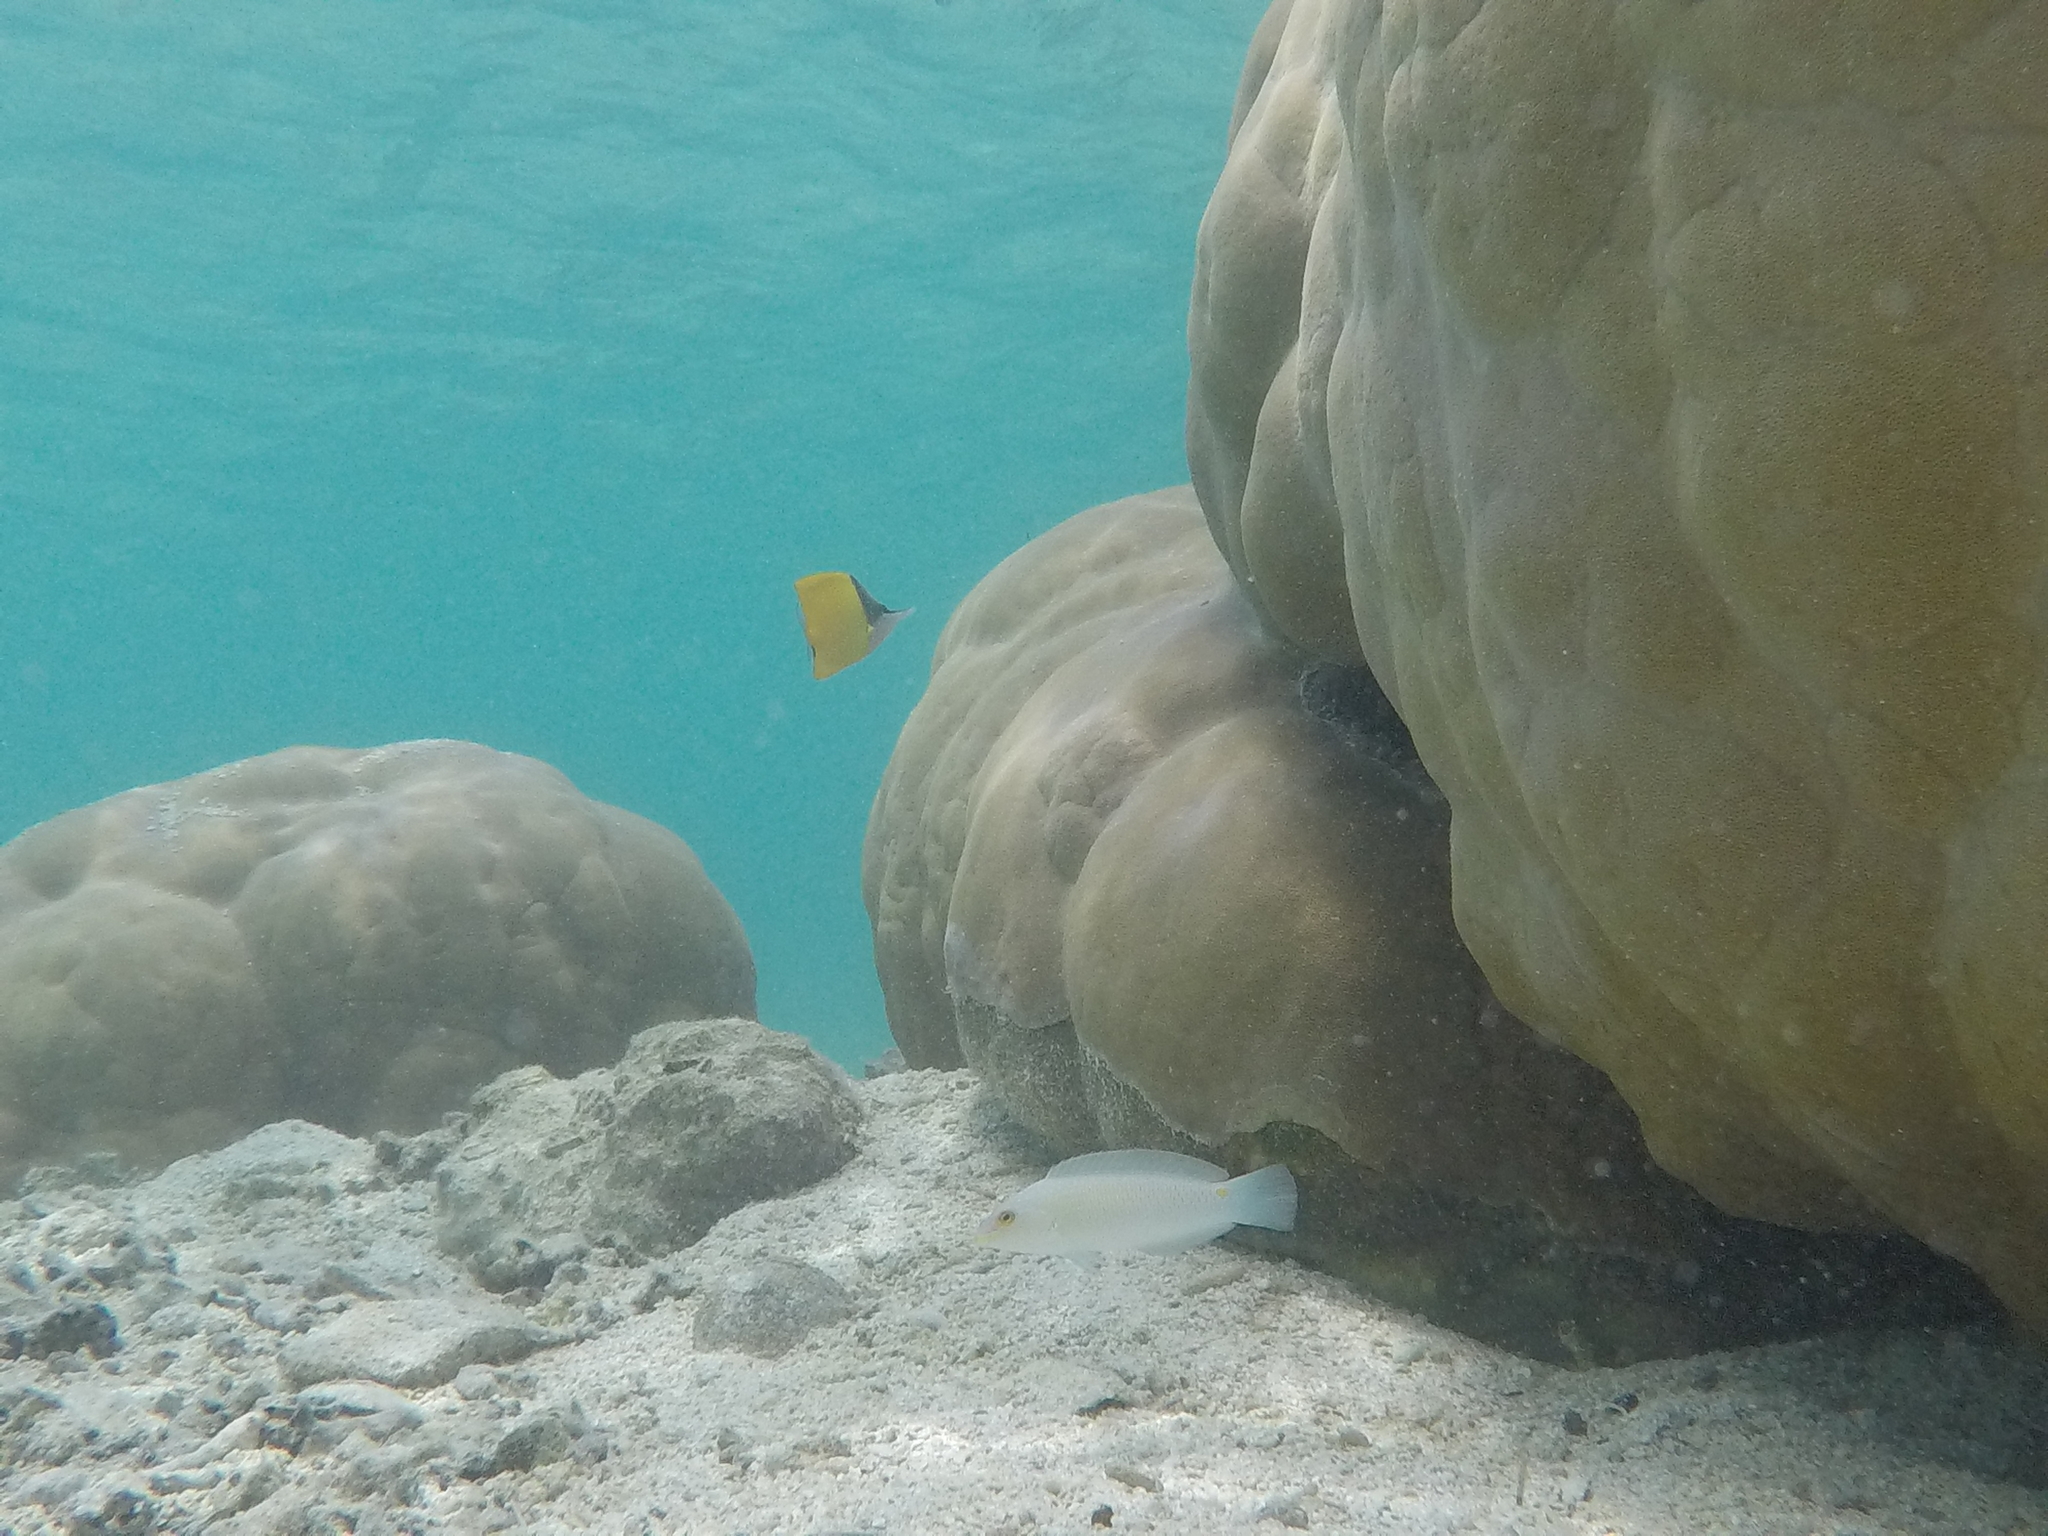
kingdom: Animalia
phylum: Chordata
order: Perciformes
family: Labridae
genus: Halichoeres
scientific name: Halichoeres trimaculatus
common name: Three-spot wrasse
